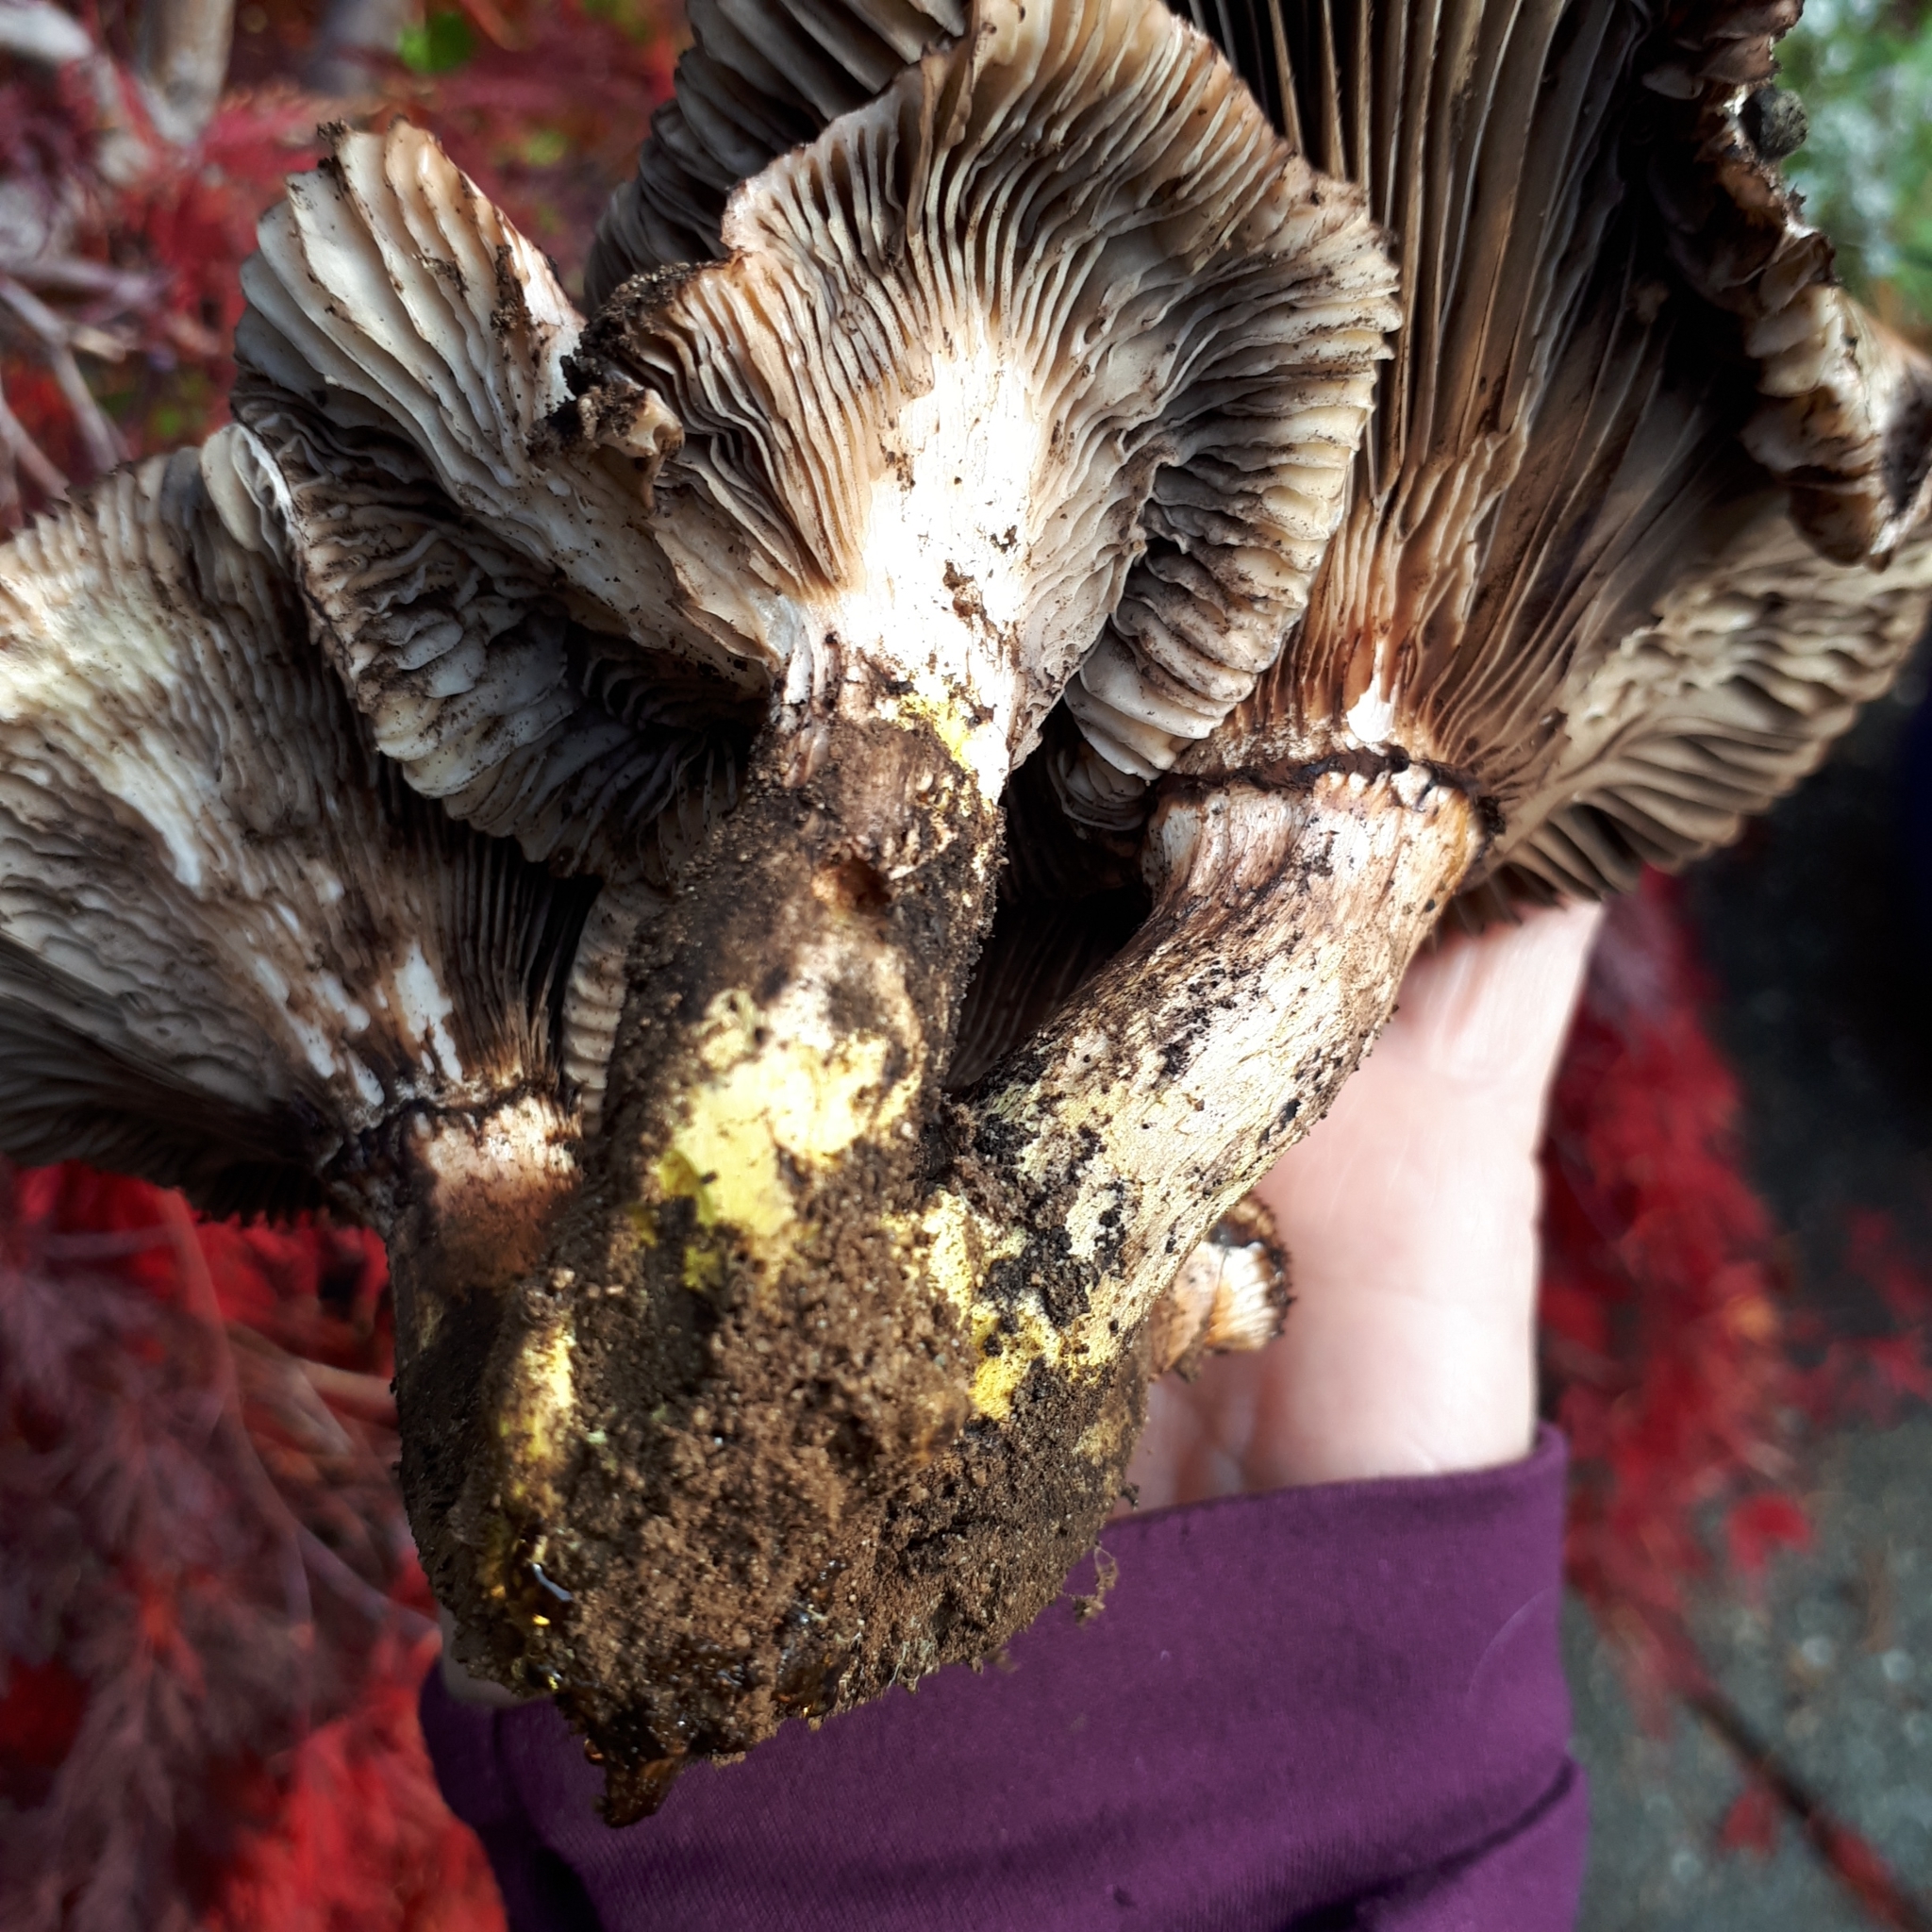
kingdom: Fungi
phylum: Basidiomycota
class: Agaricomycetes
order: Boletales
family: Gomphidiaceae
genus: Gomphidius
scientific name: Gomphidius oregonensis
